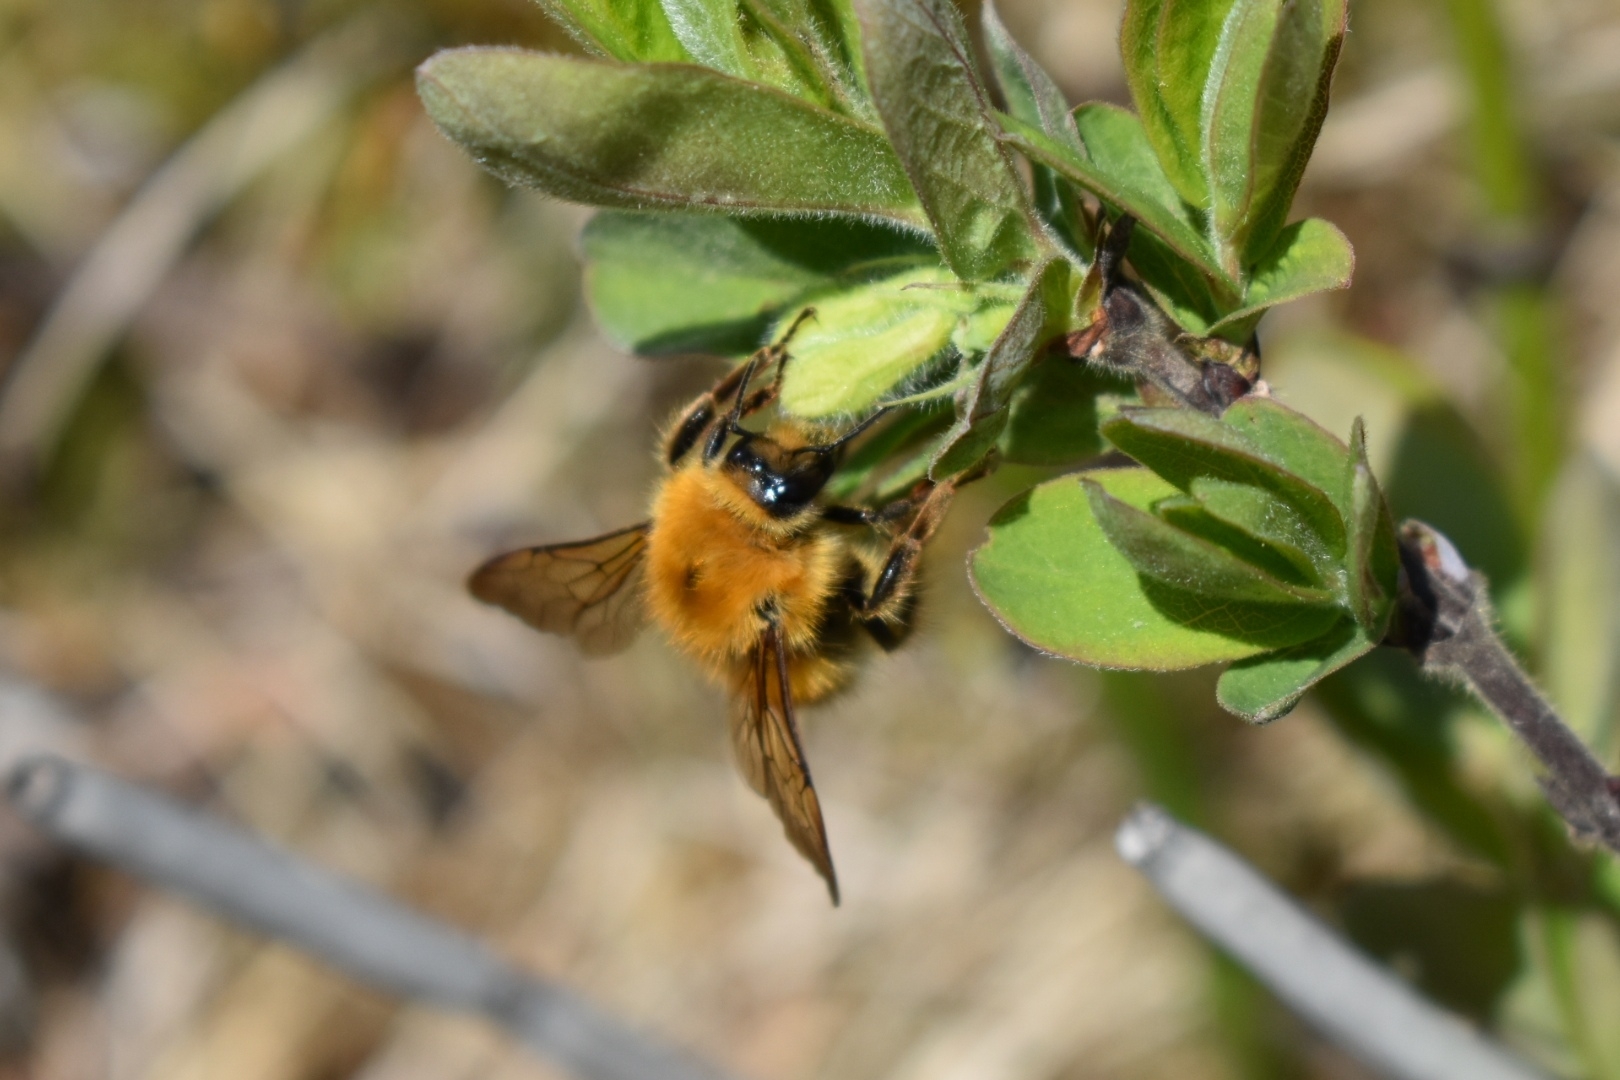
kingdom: Animalia
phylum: Arthropoda
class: Insecta
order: Hymenoptera
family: Apidae
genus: Bombus
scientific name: Bombus
